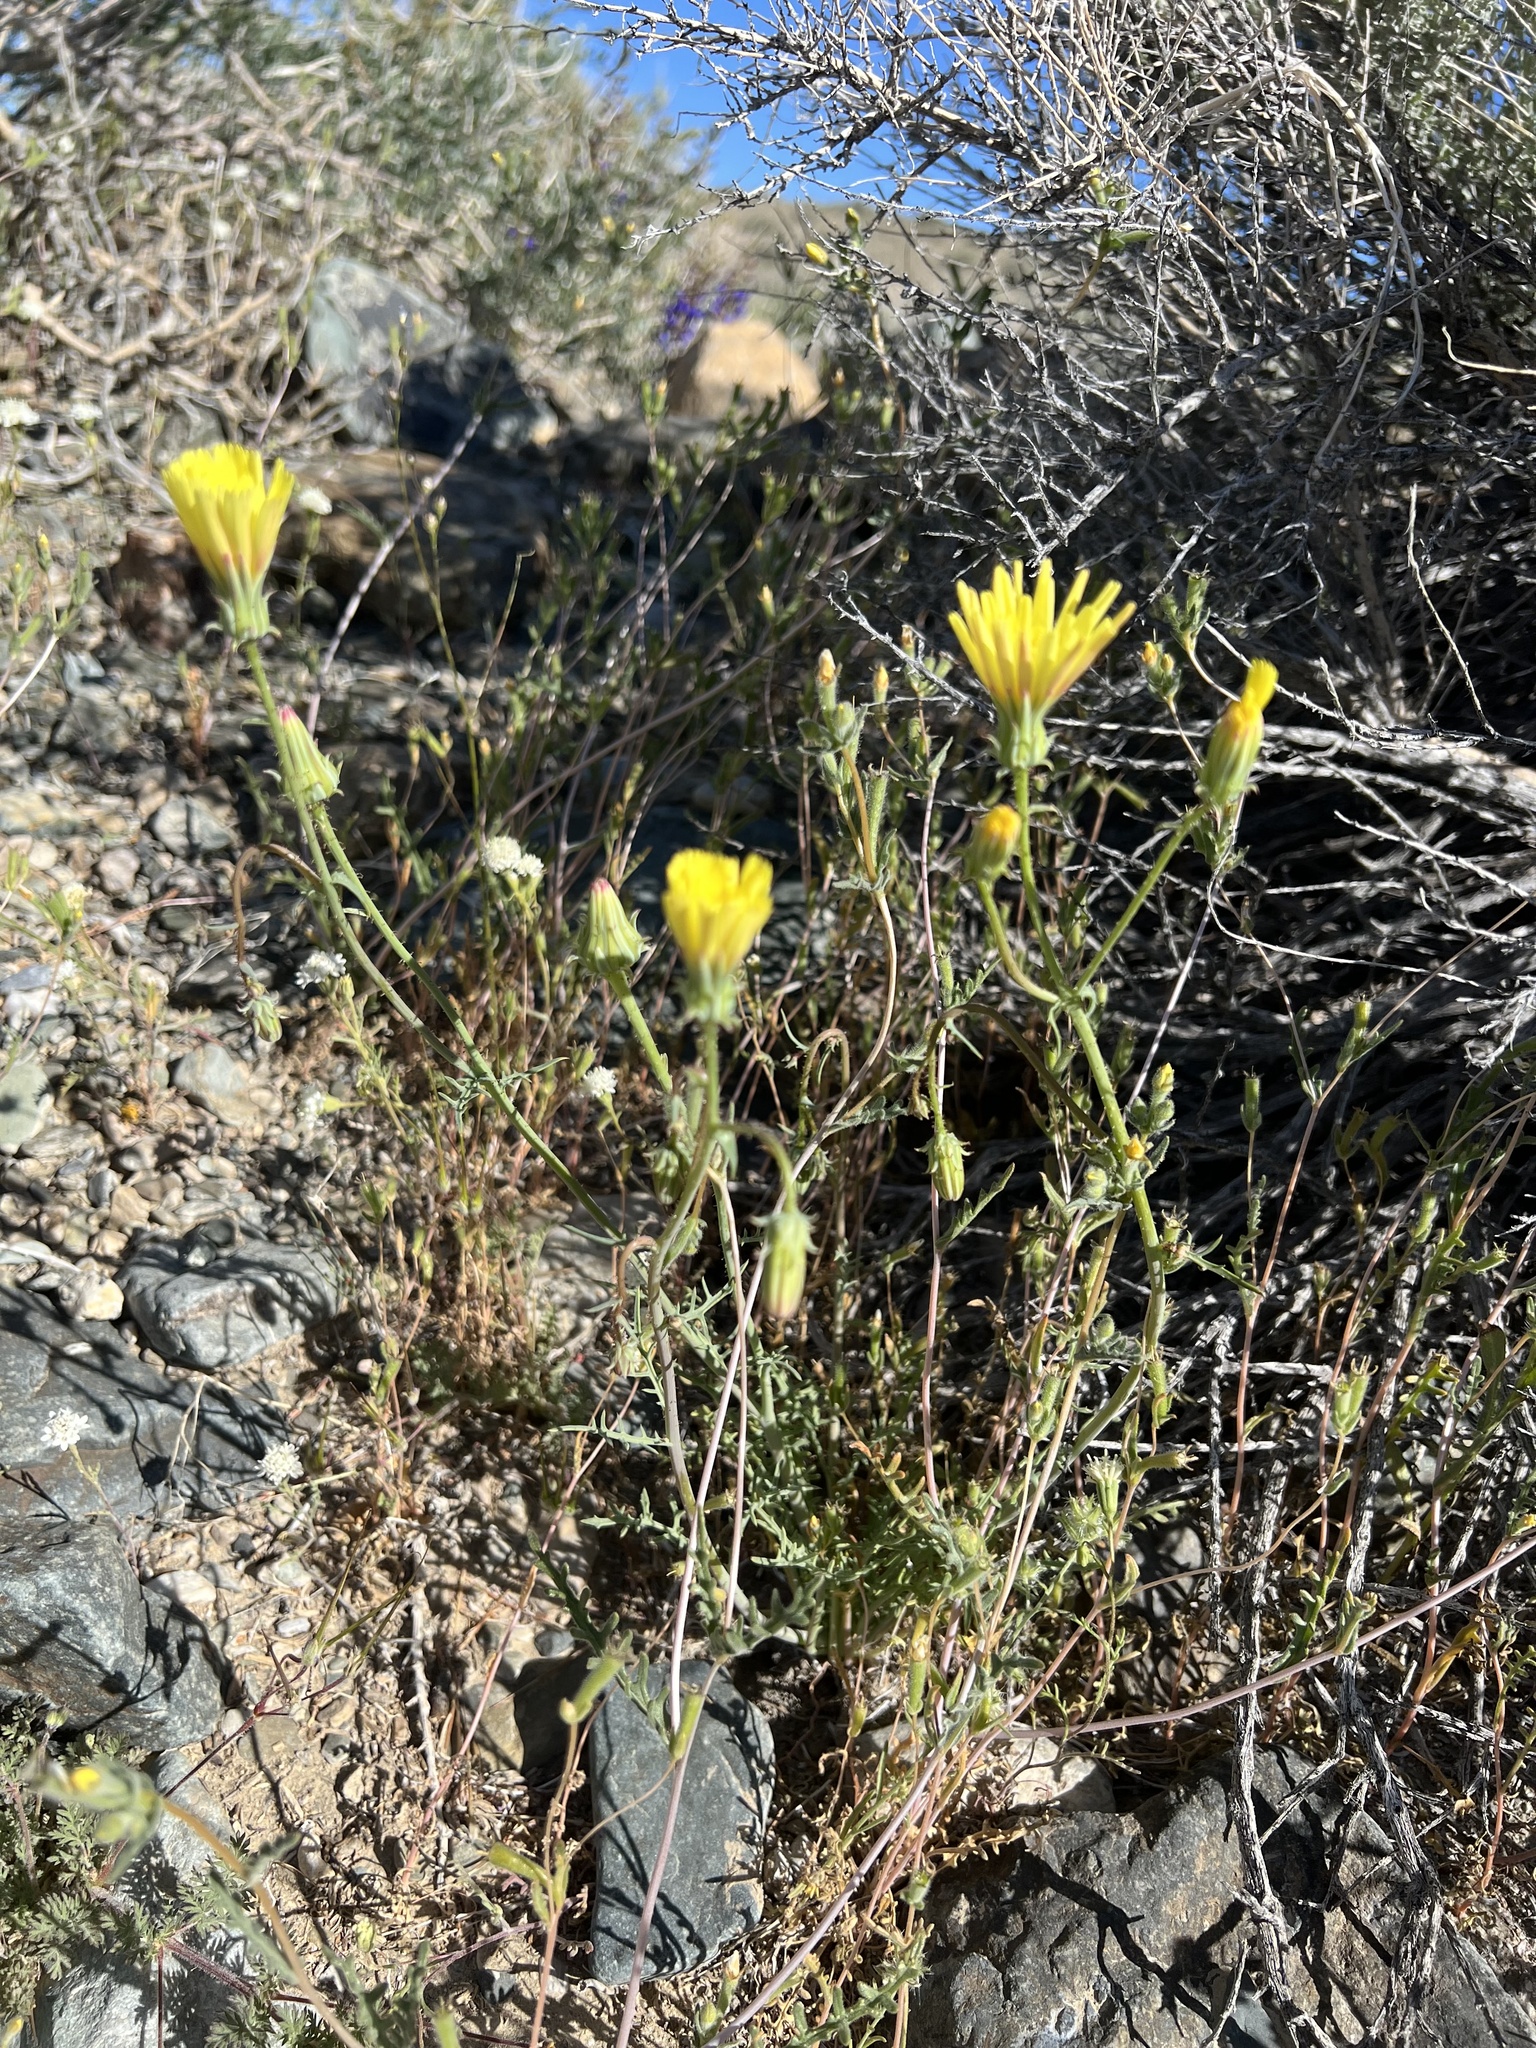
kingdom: Plantae
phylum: Tracheophyta
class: Magnoliopsida
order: Asterales
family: Asteraceae
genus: Calycoseris
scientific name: Calycoseris parryi
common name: Yellow tackstem
